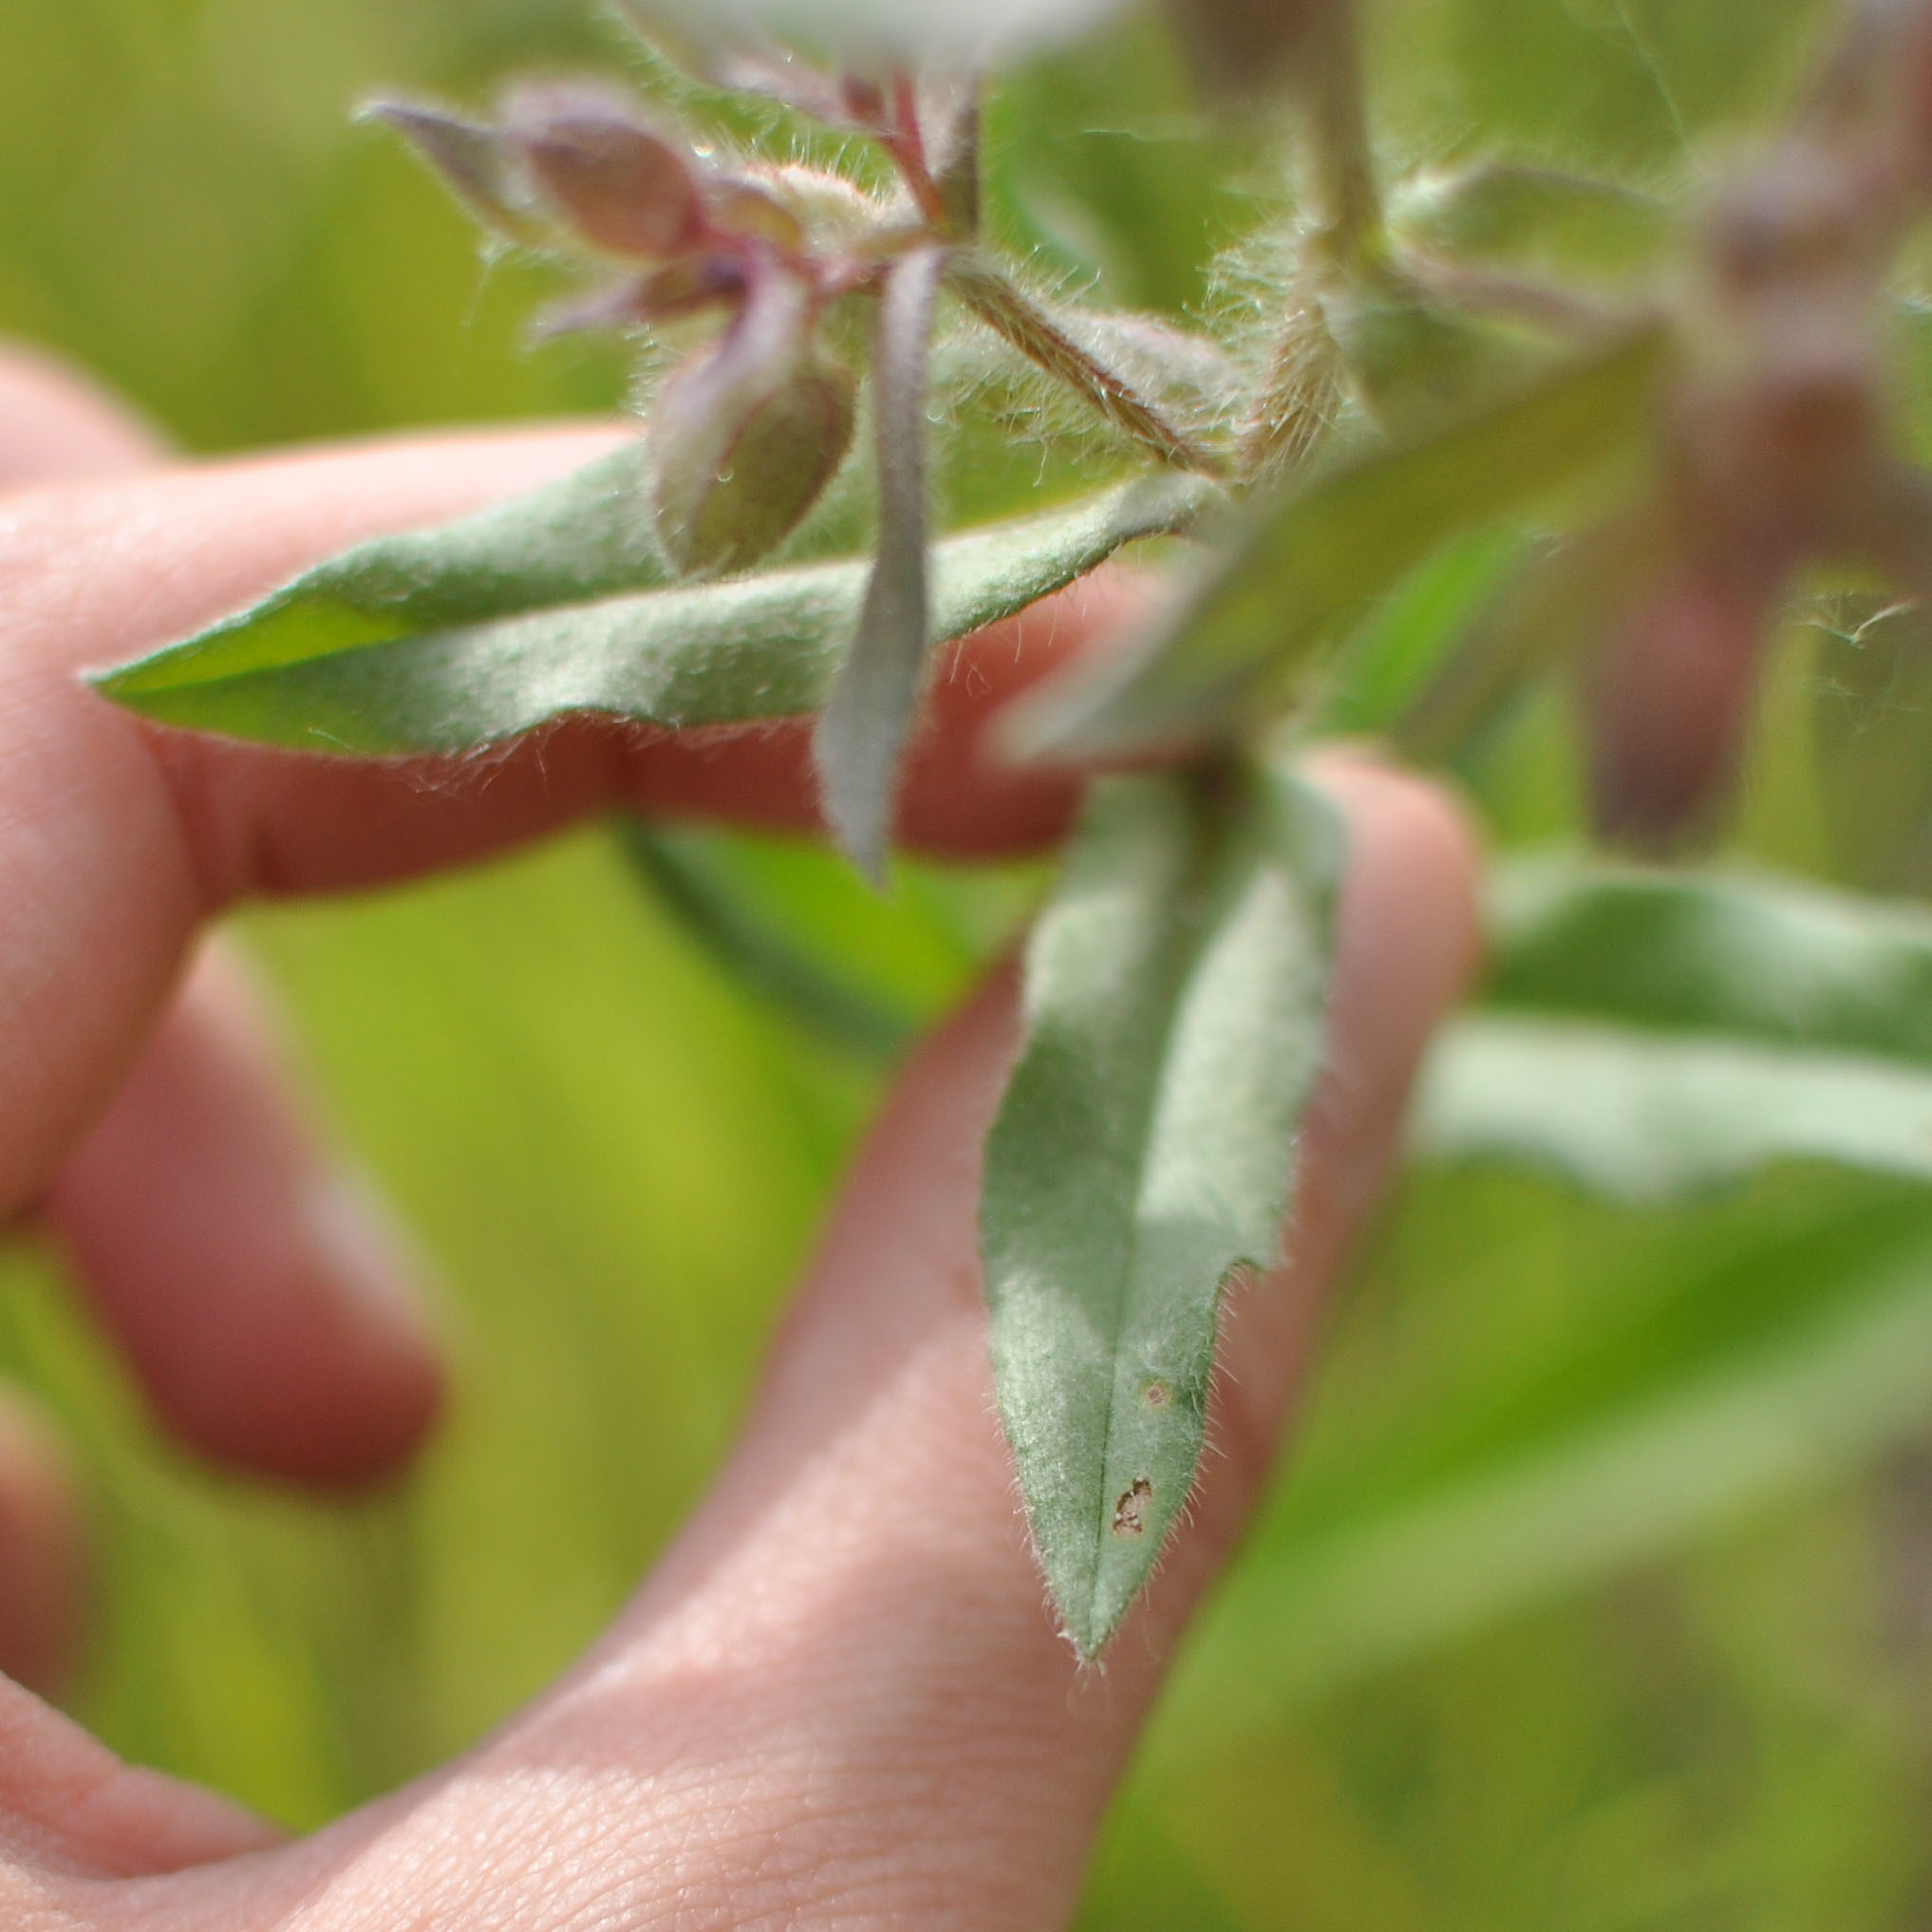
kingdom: Plantae
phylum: Tracheophyta
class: Magnoliopsida
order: Boraginales
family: Boraginaceae
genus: Nonea
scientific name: Nonea pulla
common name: Brown nonea
